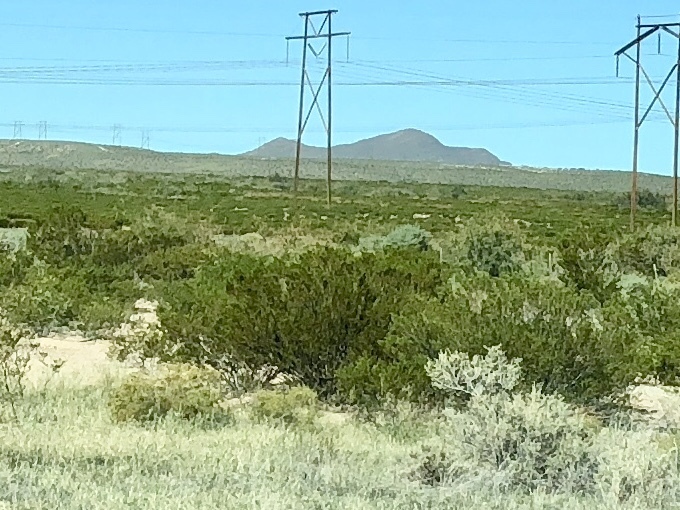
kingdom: Plantae
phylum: Tracheophyta
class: Magnoliopsida
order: Zygophyllales
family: Zygophyllaceae
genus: Larrea
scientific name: Larrea tridentata
